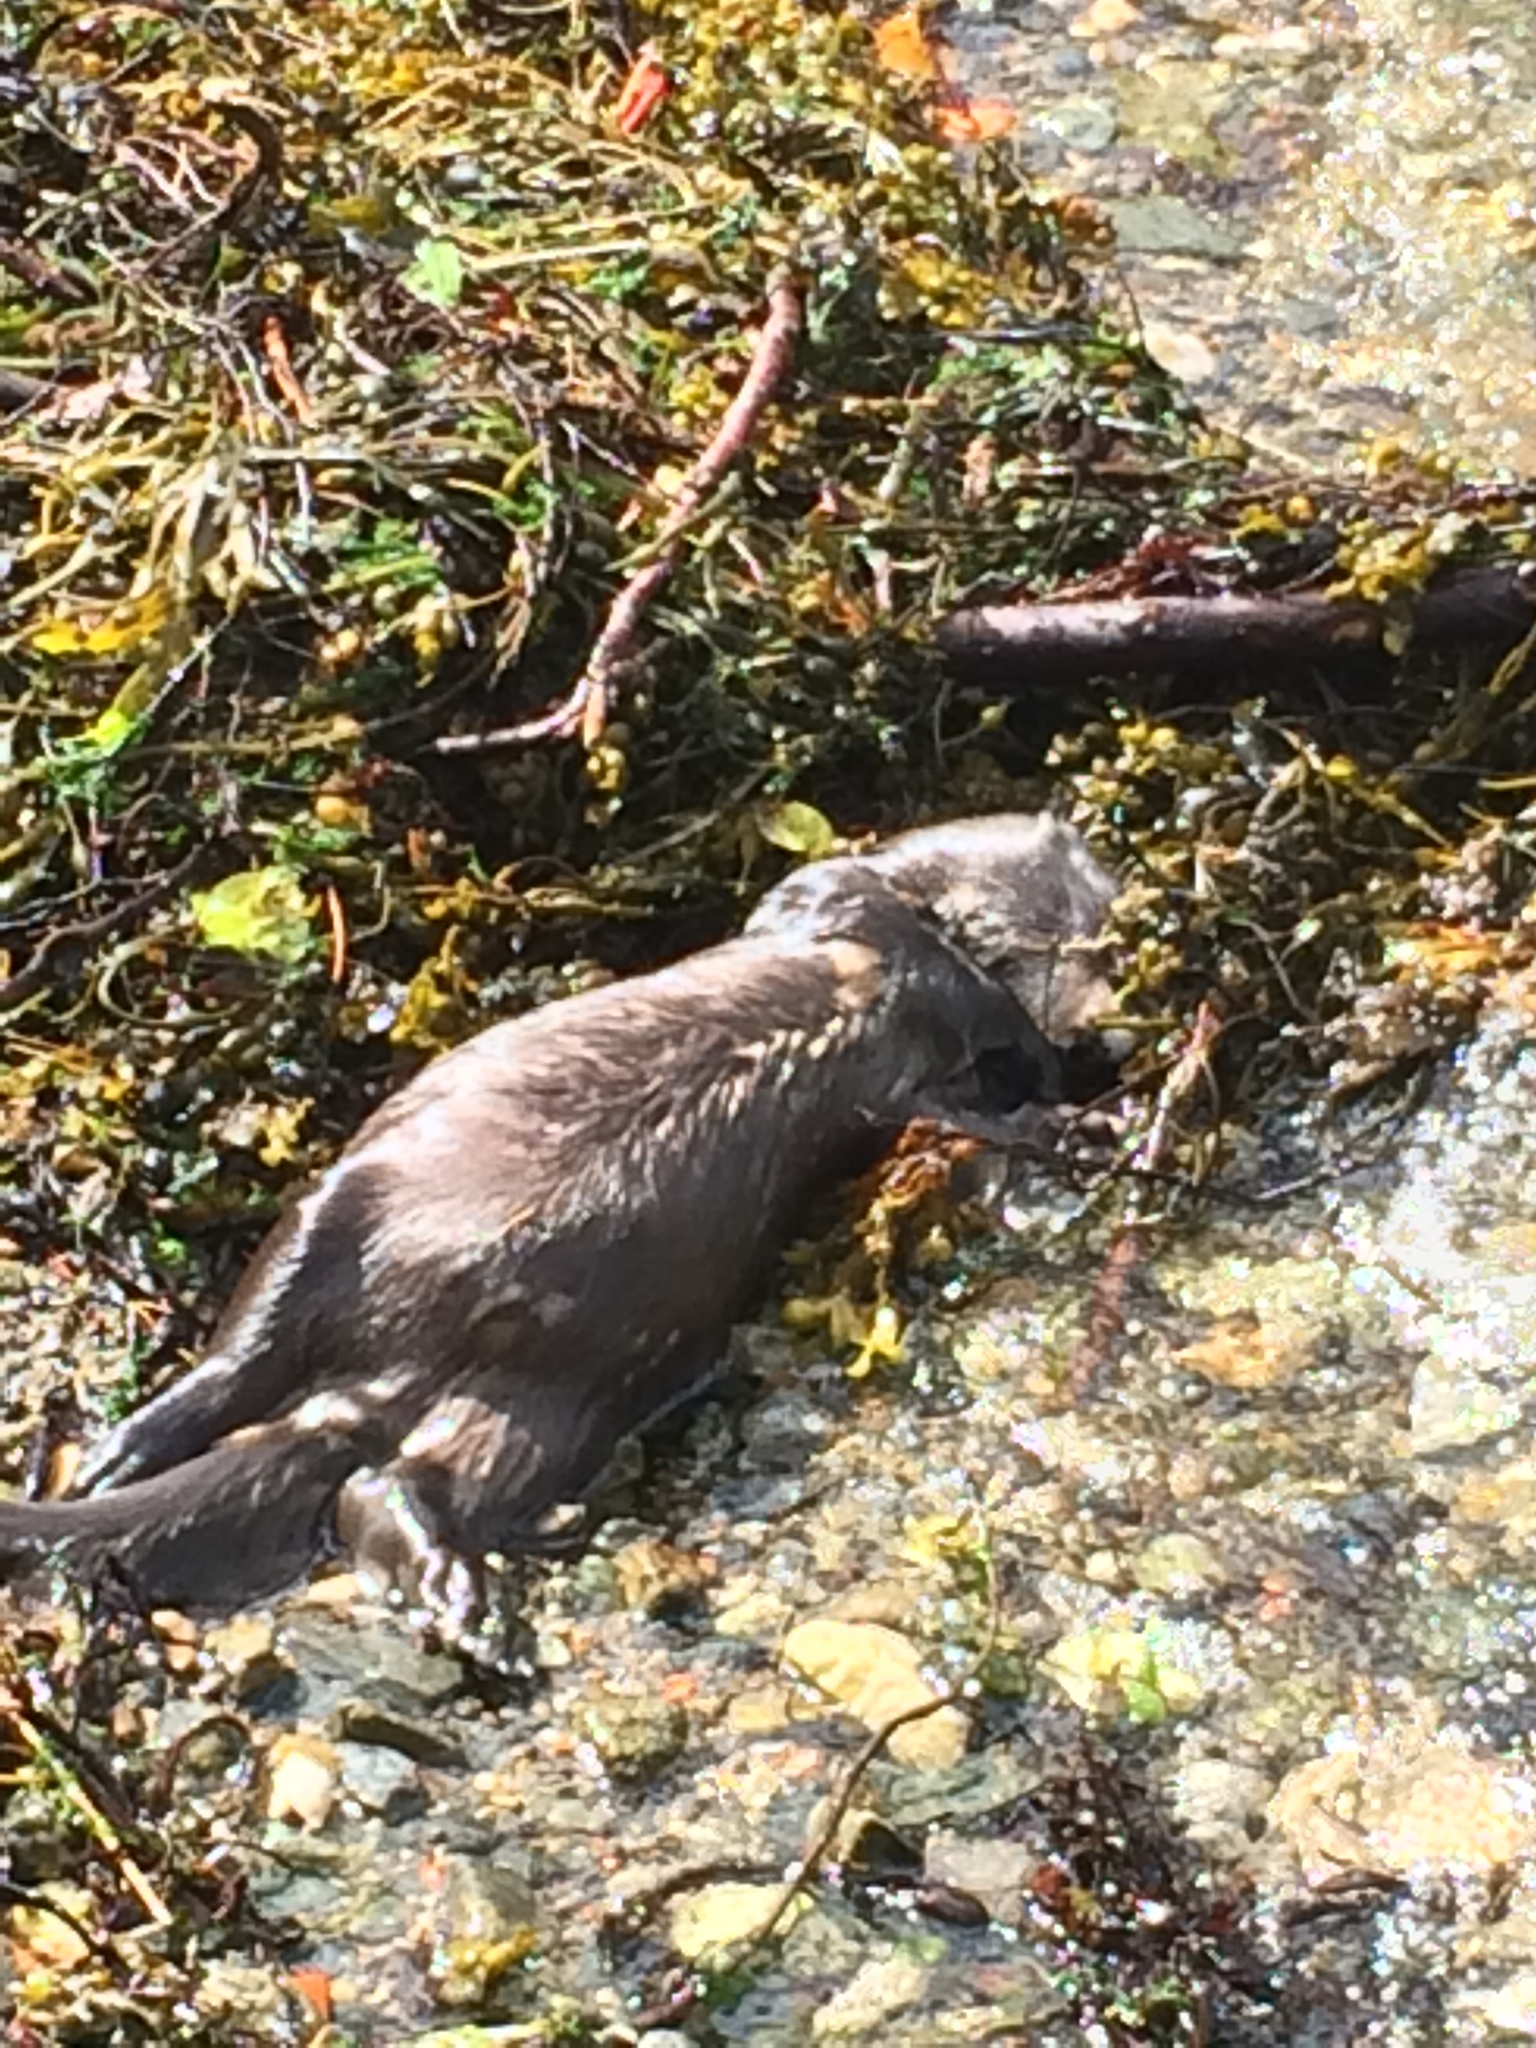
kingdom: Animalia
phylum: Chordata
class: Mammalia
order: Carnivora
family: Mustelidae
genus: Lutra
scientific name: Lutra lutra
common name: European otter
